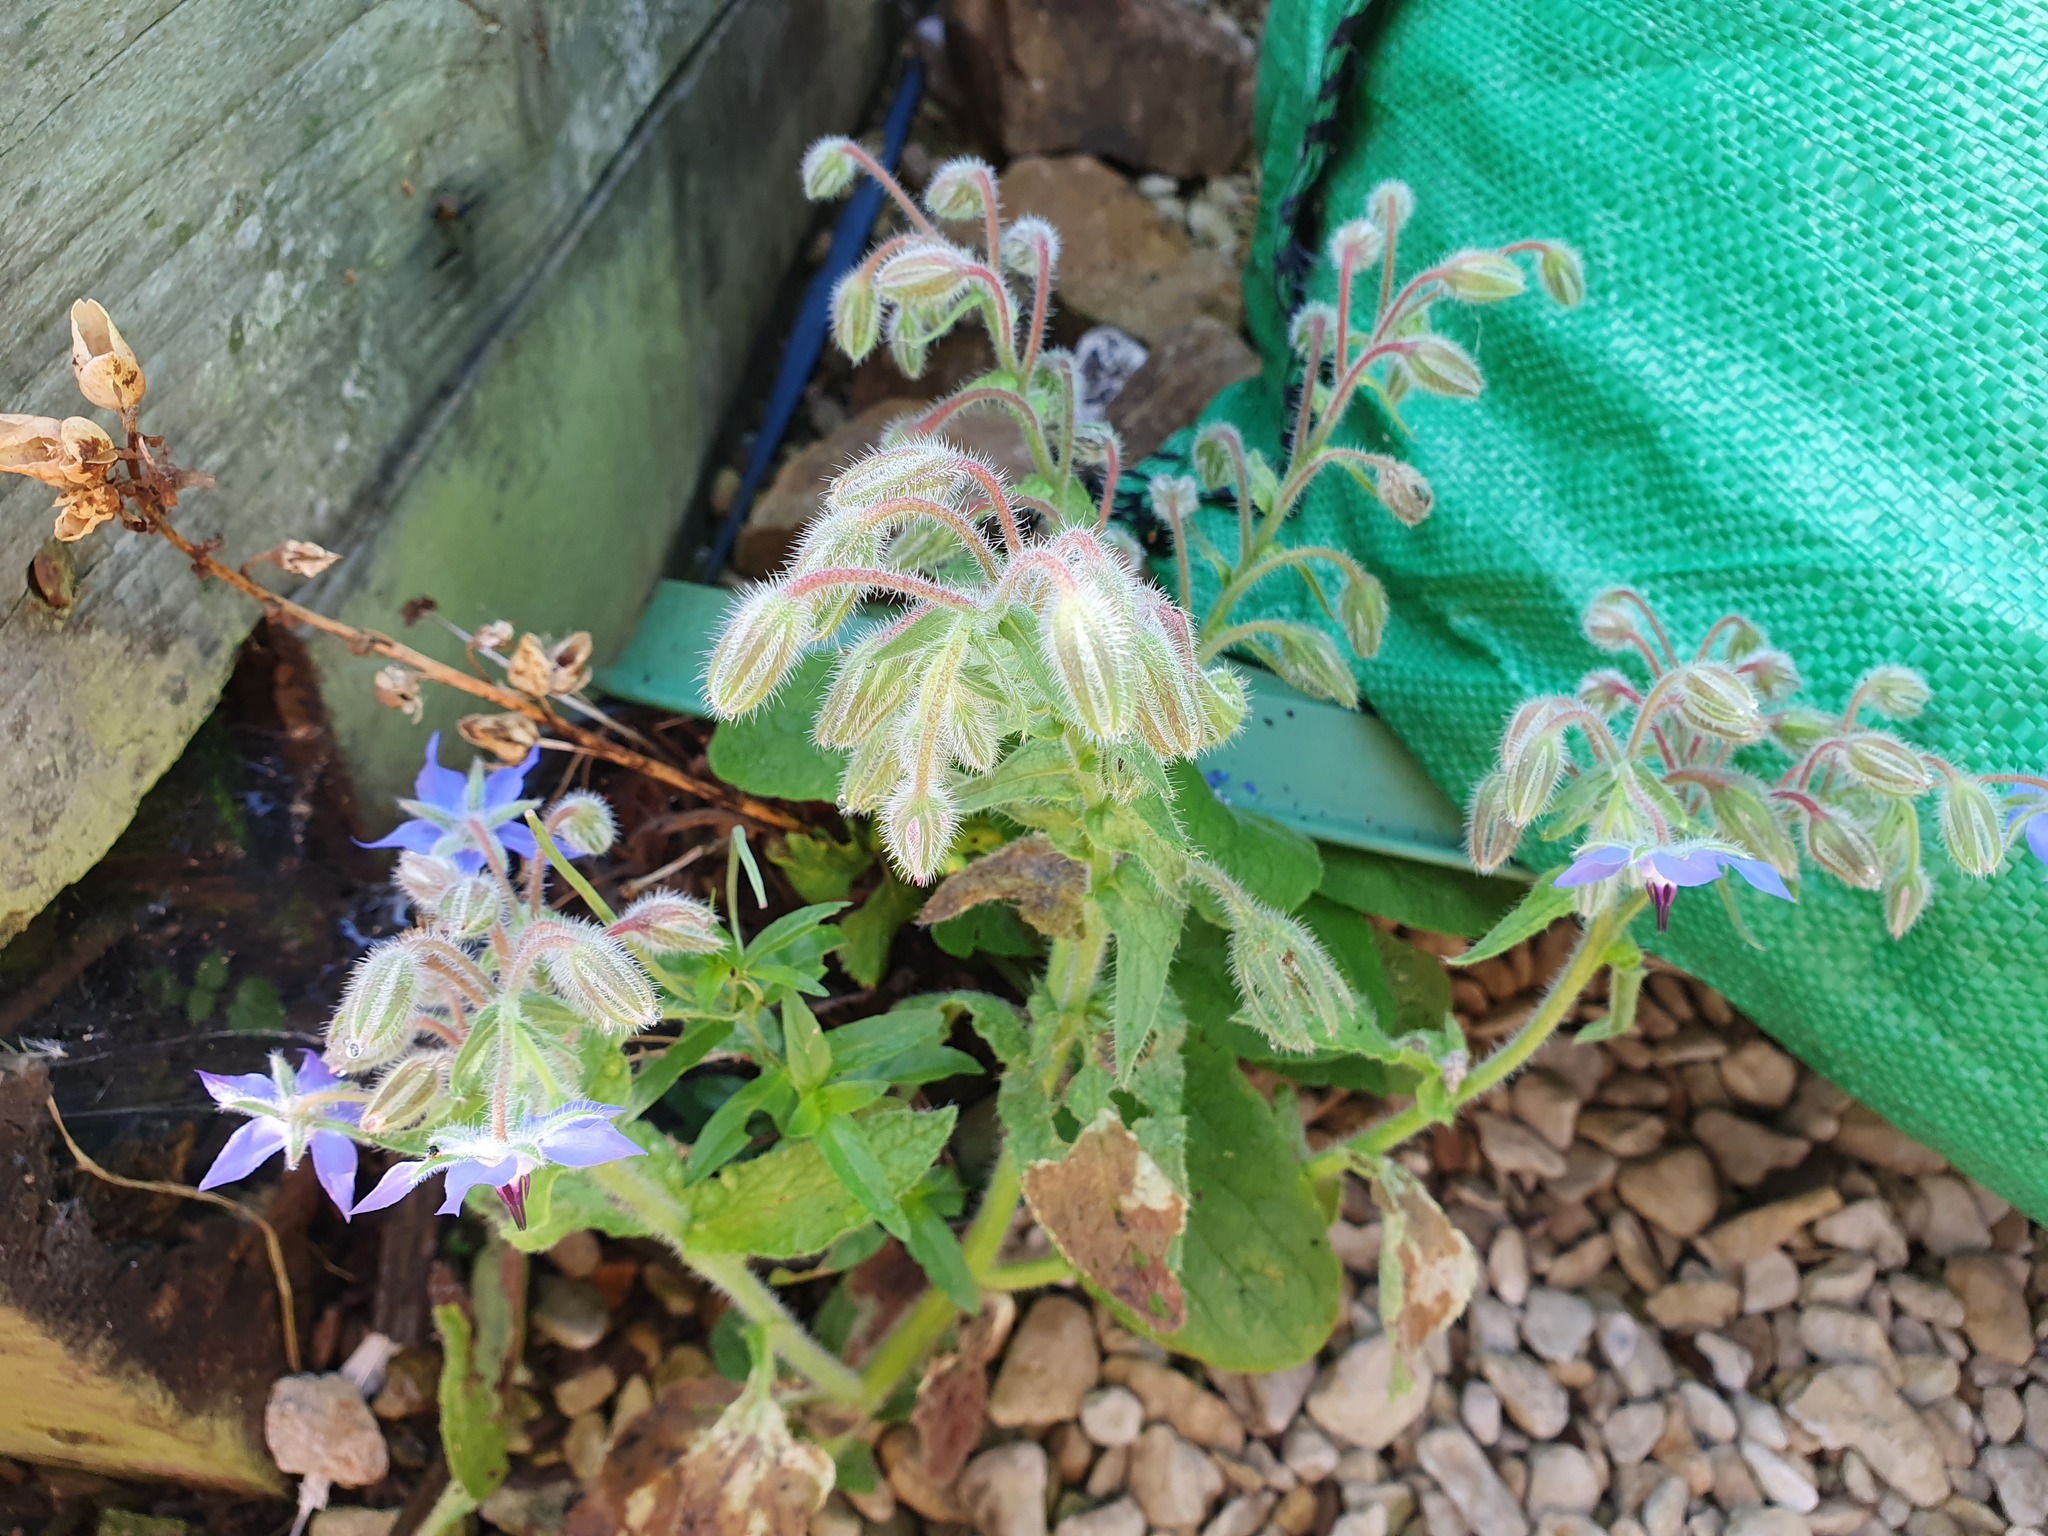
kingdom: Plantae
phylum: Tracheophyta
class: Magnoliopsida
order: Boraginales
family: Boraginaceae
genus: Borago
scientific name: Borago officinalis
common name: Borage
